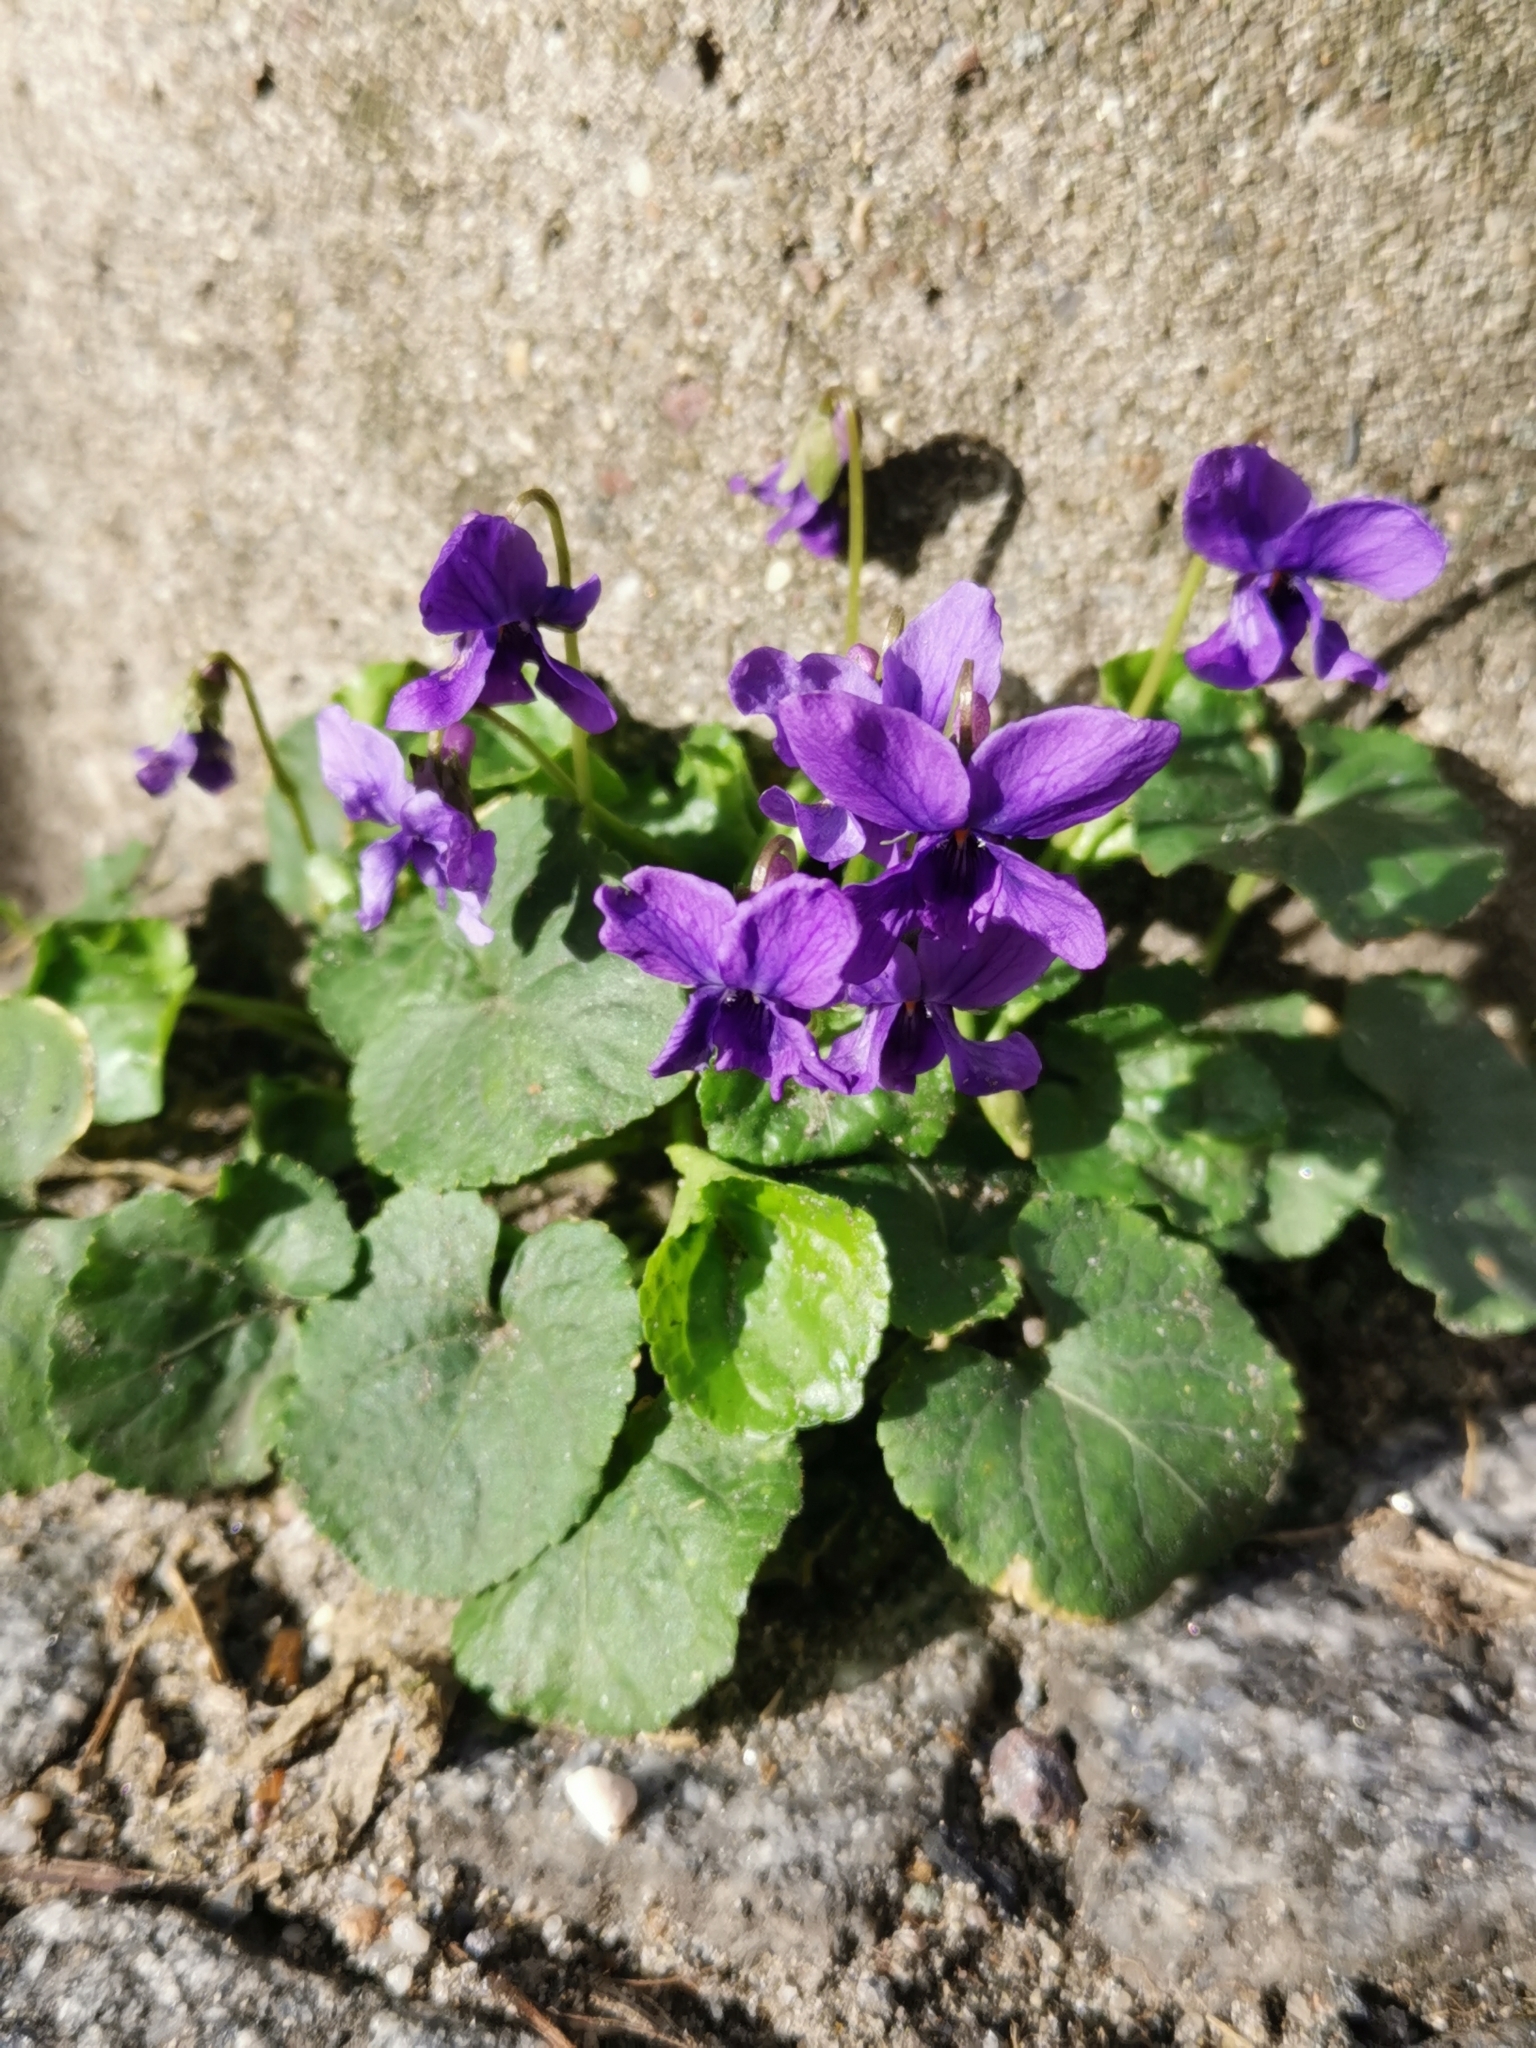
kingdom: Plantae
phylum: Tracheophyta
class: Magnoliopsida
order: Malpighiales
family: Violaceae
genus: Viola
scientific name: Viola odorata
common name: Sweet violet
